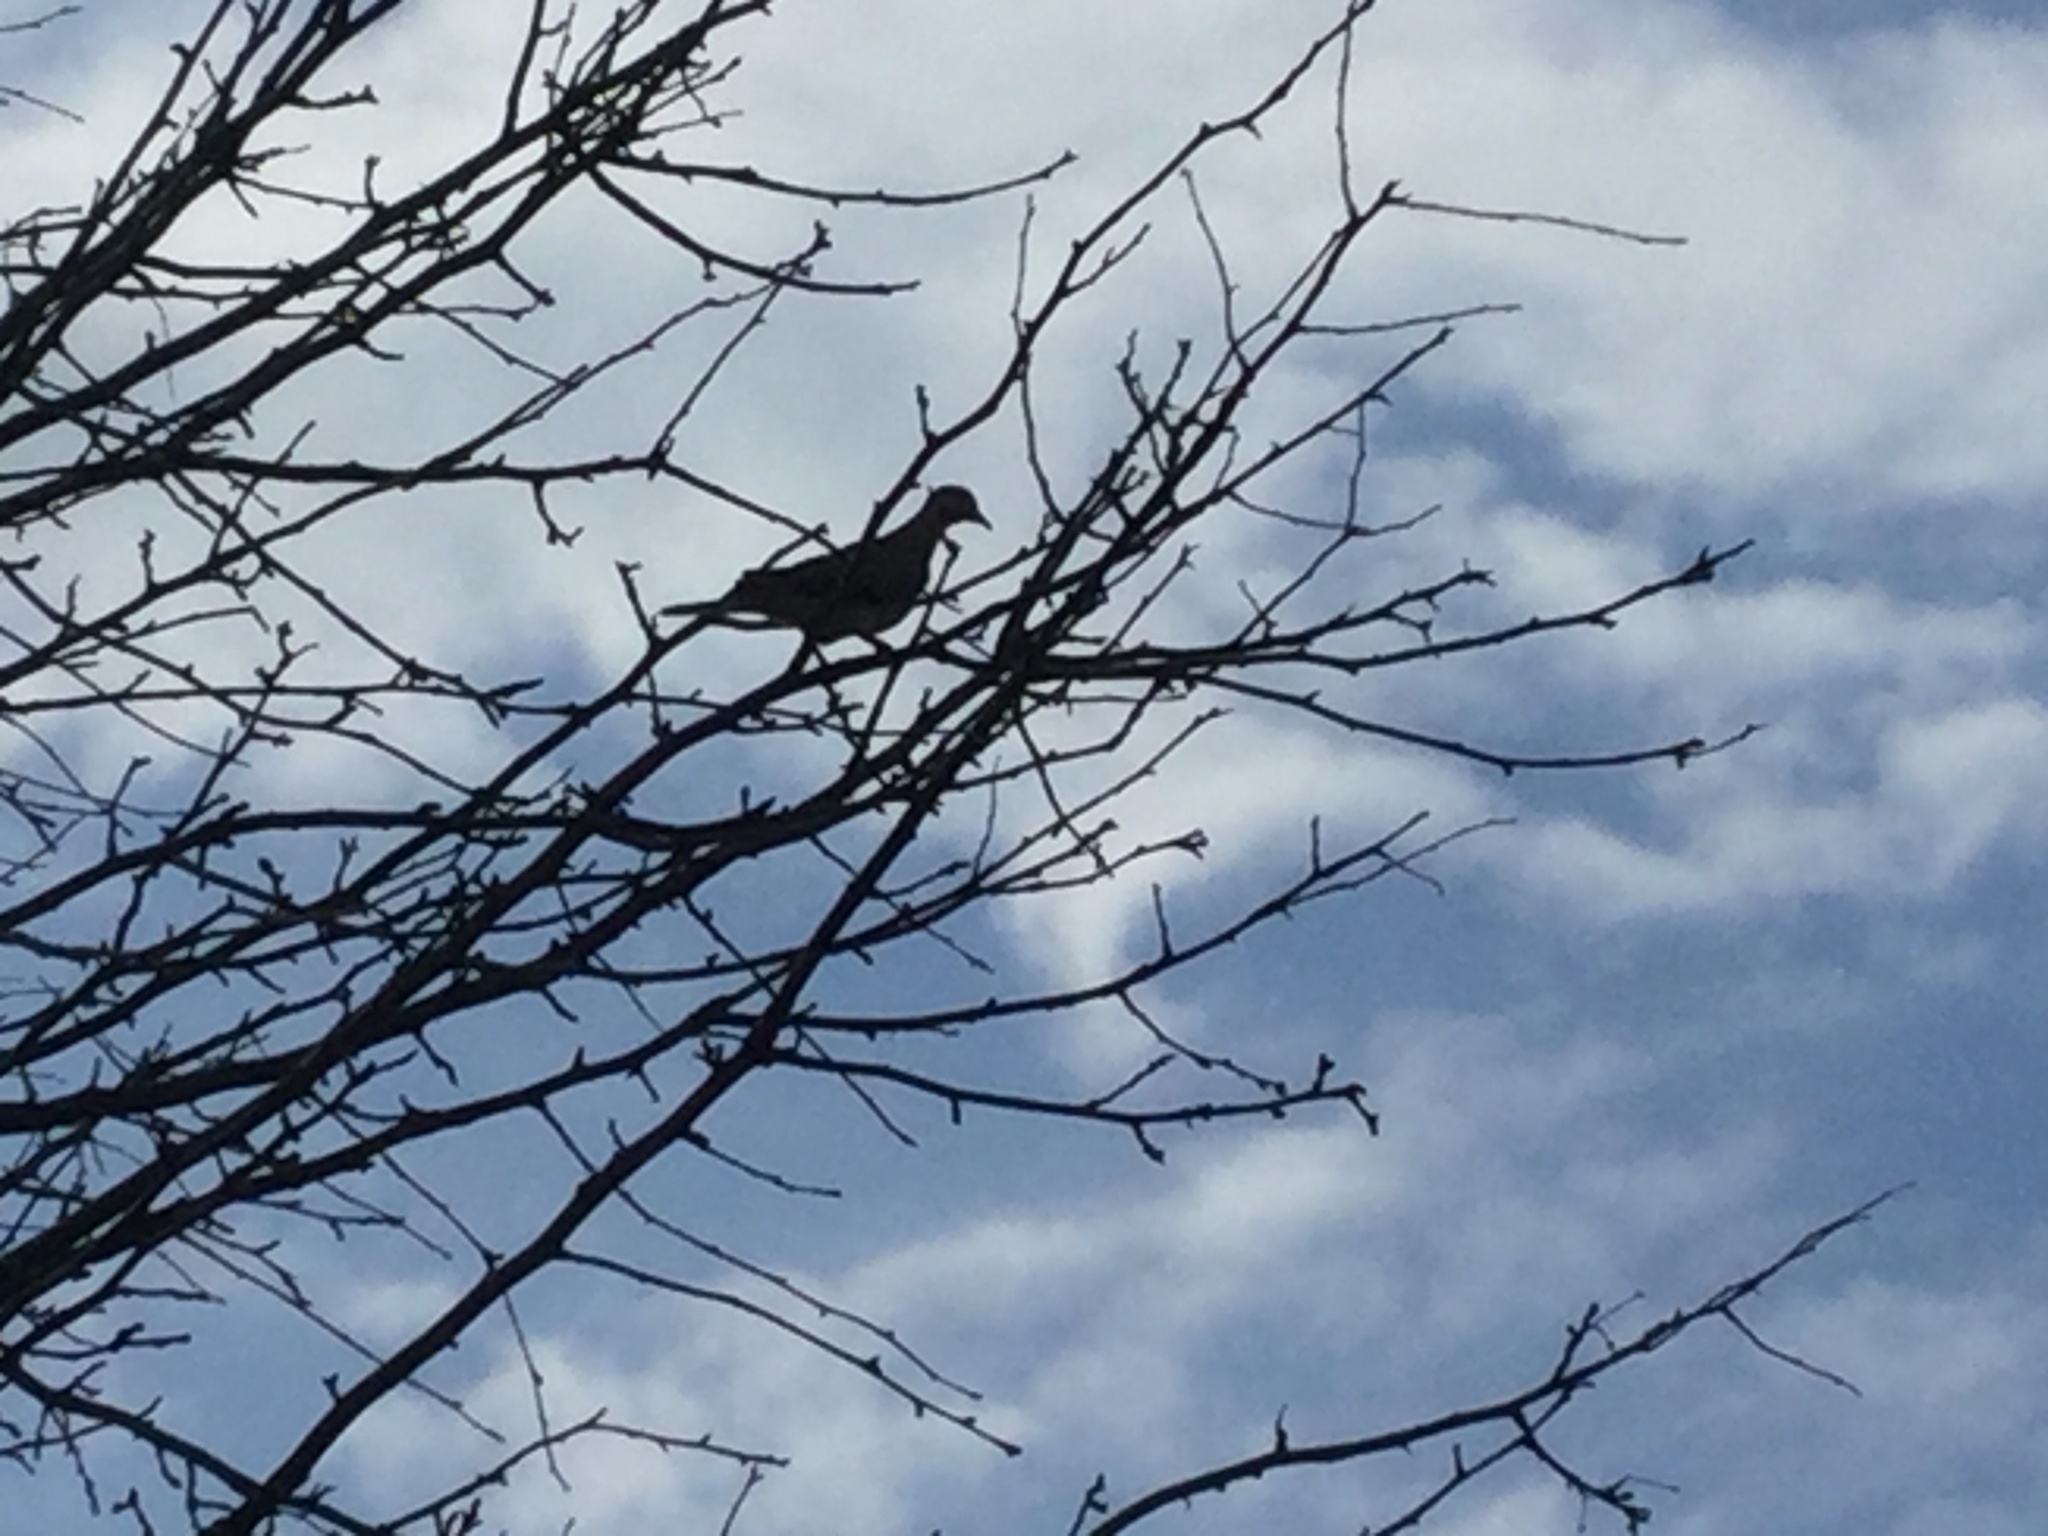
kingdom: Animalia
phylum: Chordata
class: Aves
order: Columbiformes
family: Columbidae
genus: Zenaida
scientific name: Zenaida macroura
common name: Mourning dove
